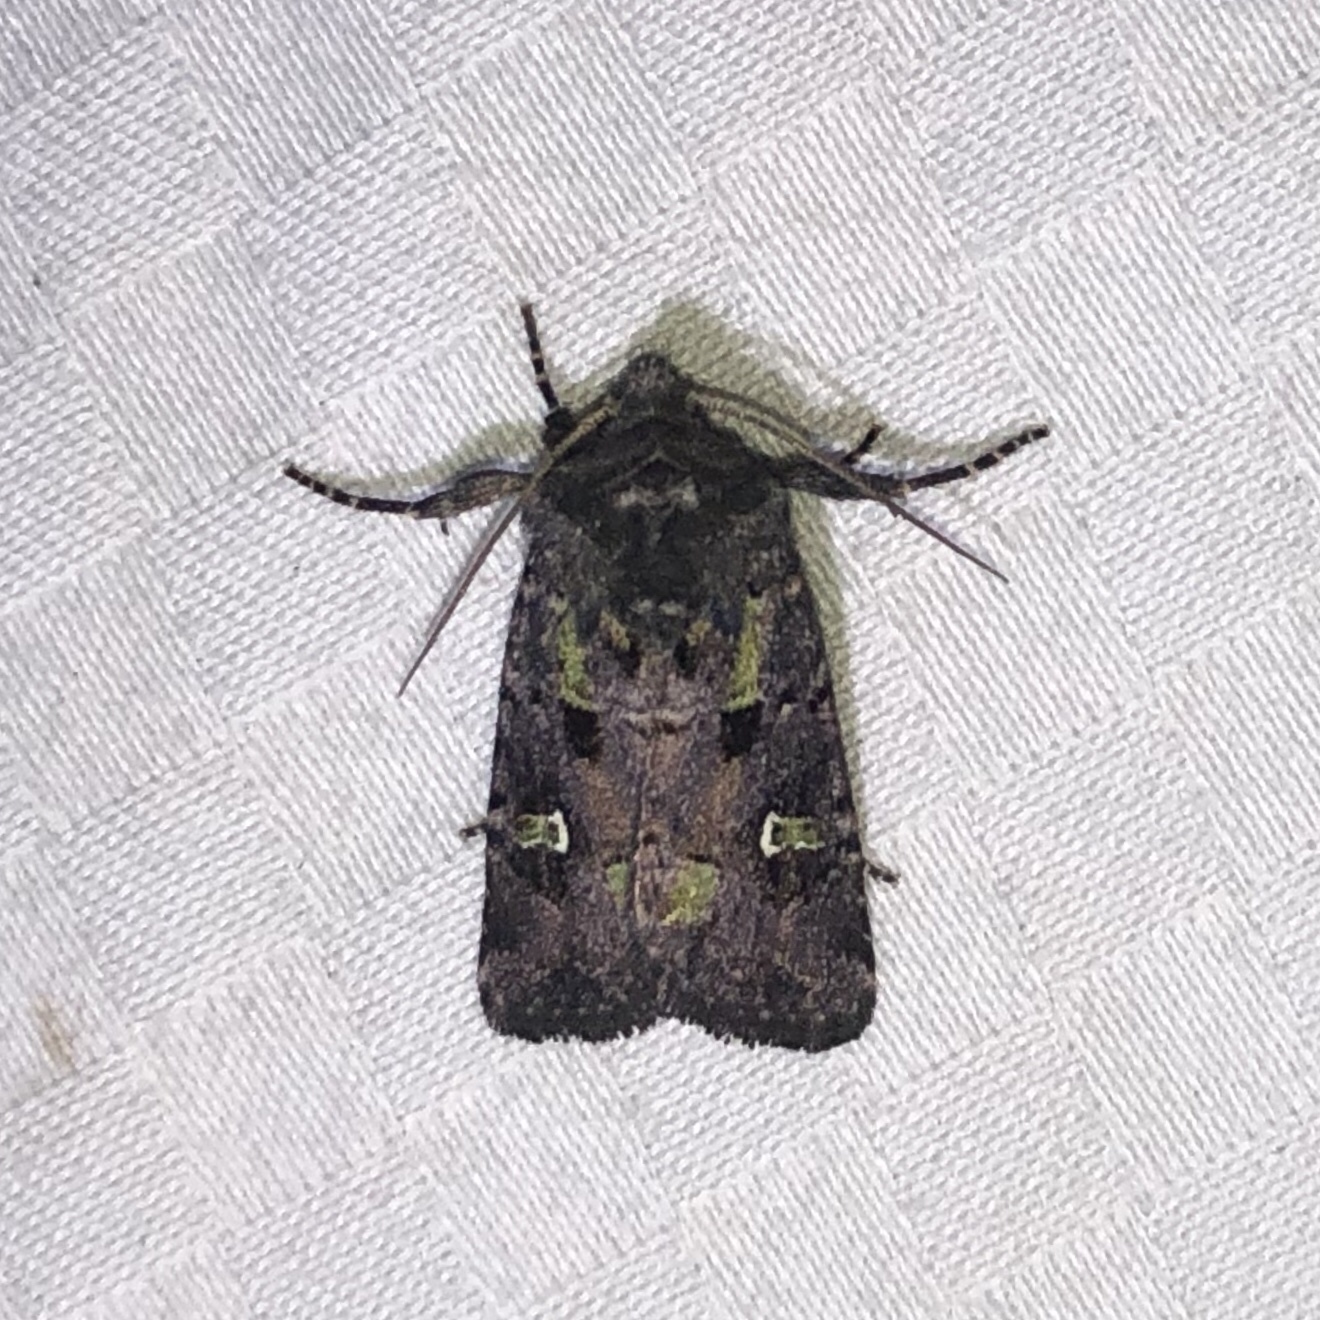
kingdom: Animalia
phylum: Arthropoda
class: Insecta
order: Lepidoptera
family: Noctuidae
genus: Lacinipolia
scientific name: Lacinipolia renigera
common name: Kidney-spotted minor
